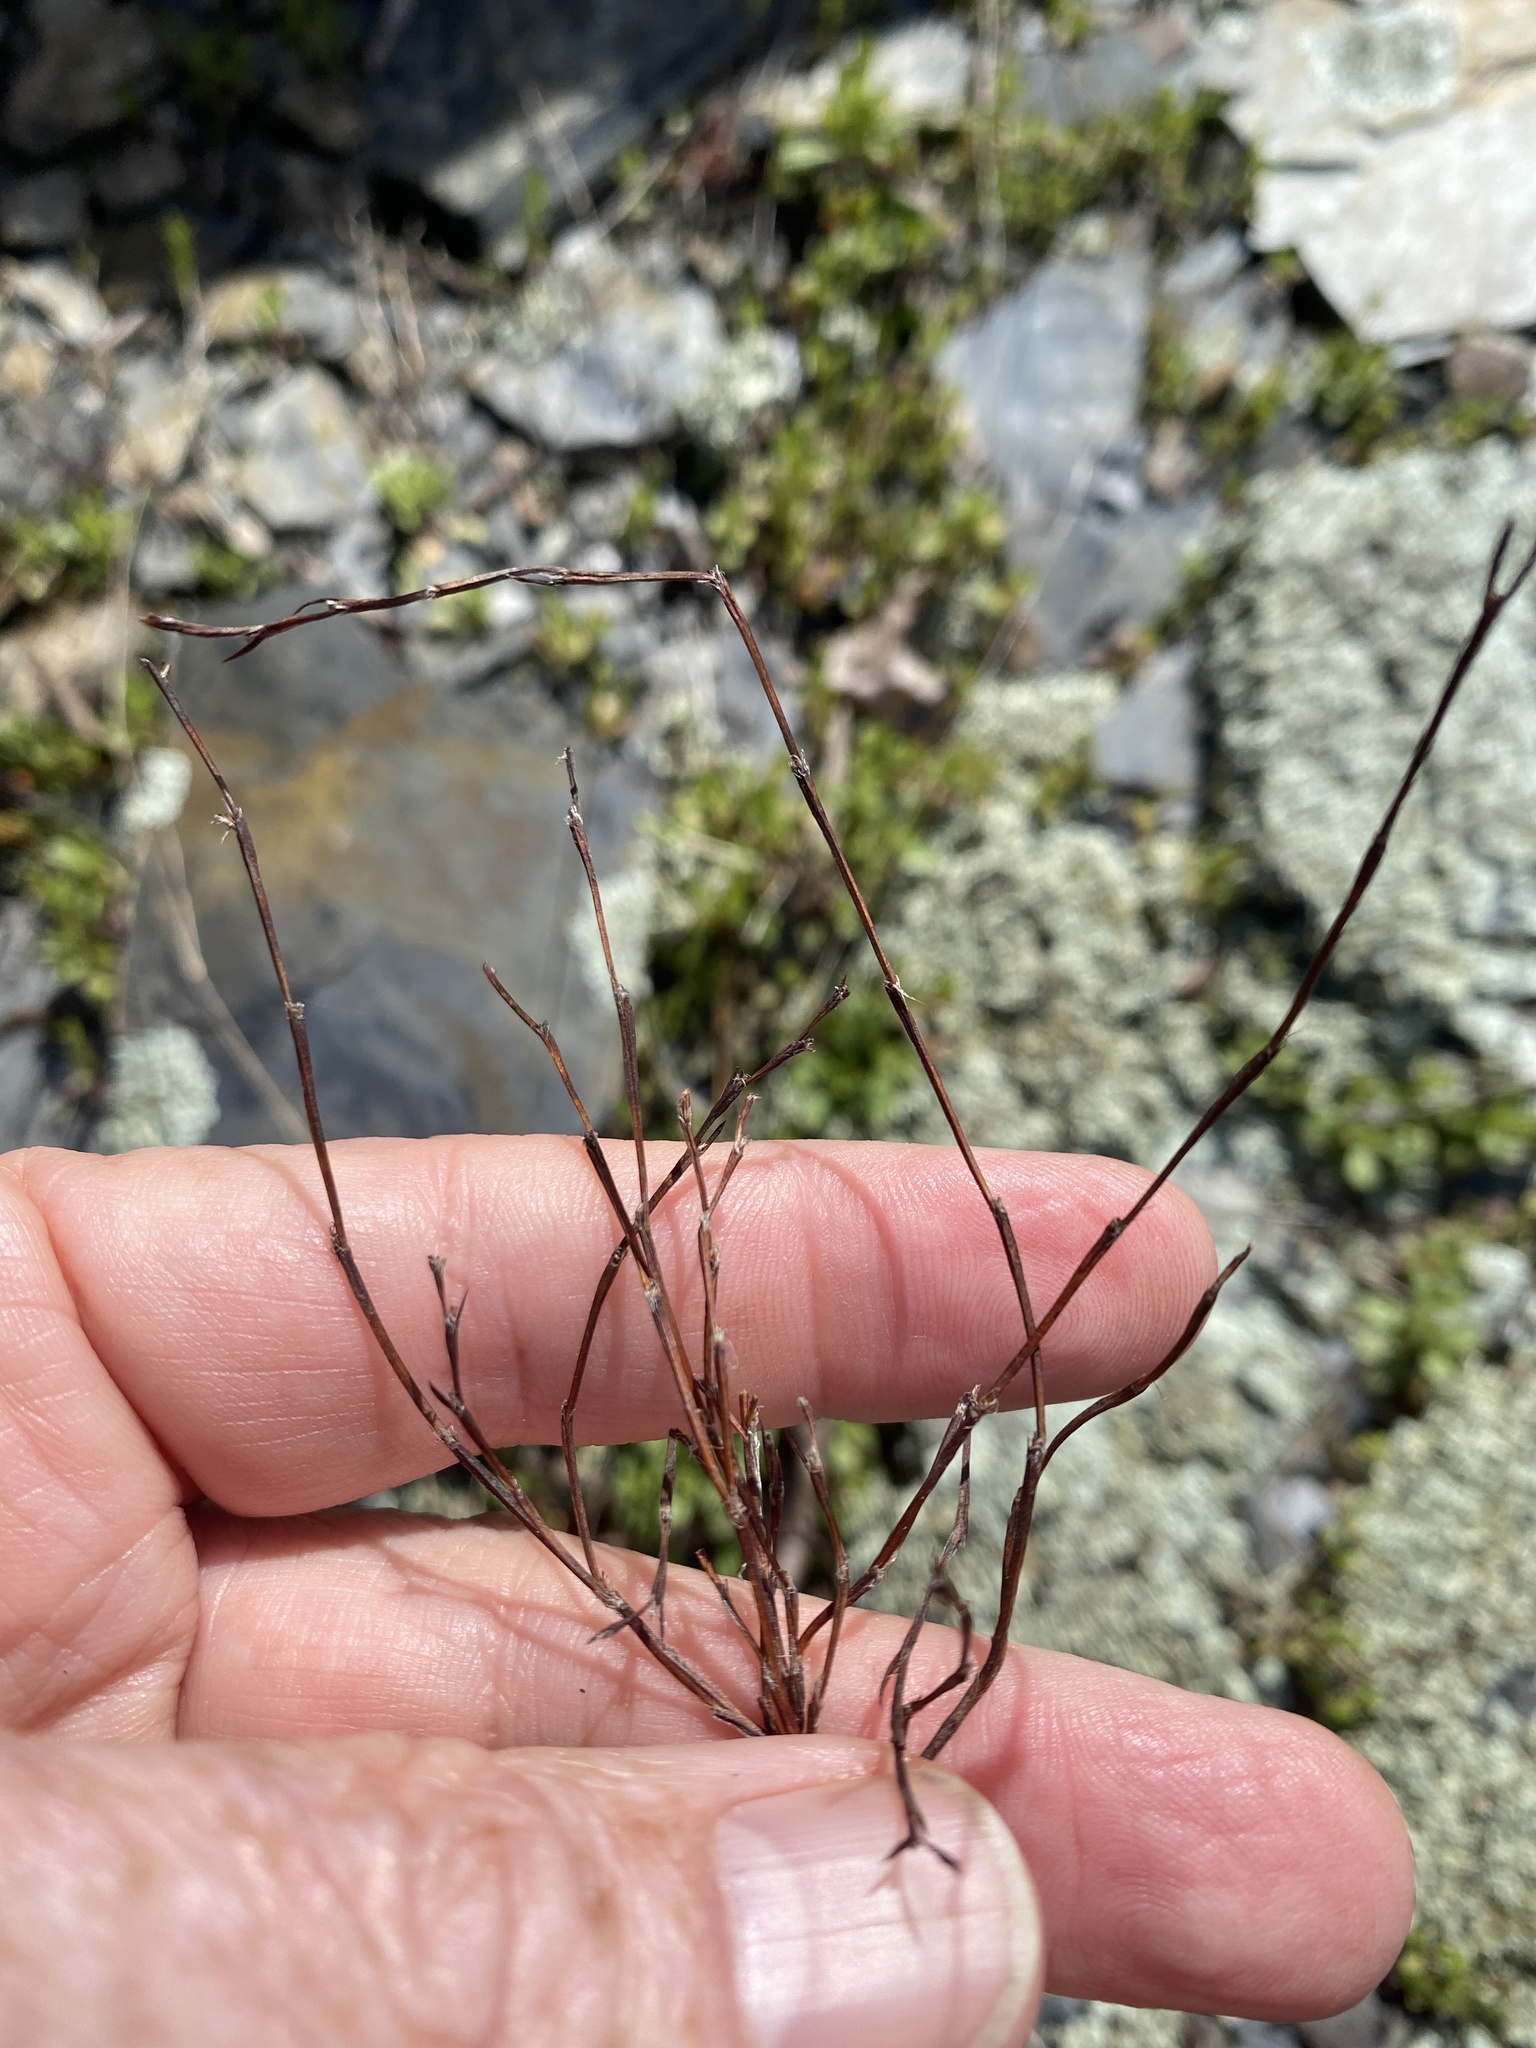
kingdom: Plantae
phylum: Tracheophyta
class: Magnoliopsida
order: Caryophyllales
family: Polygonaceae
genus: Polygonum
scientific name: Polygonum tenue
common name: Pleat-leaved knotweed
